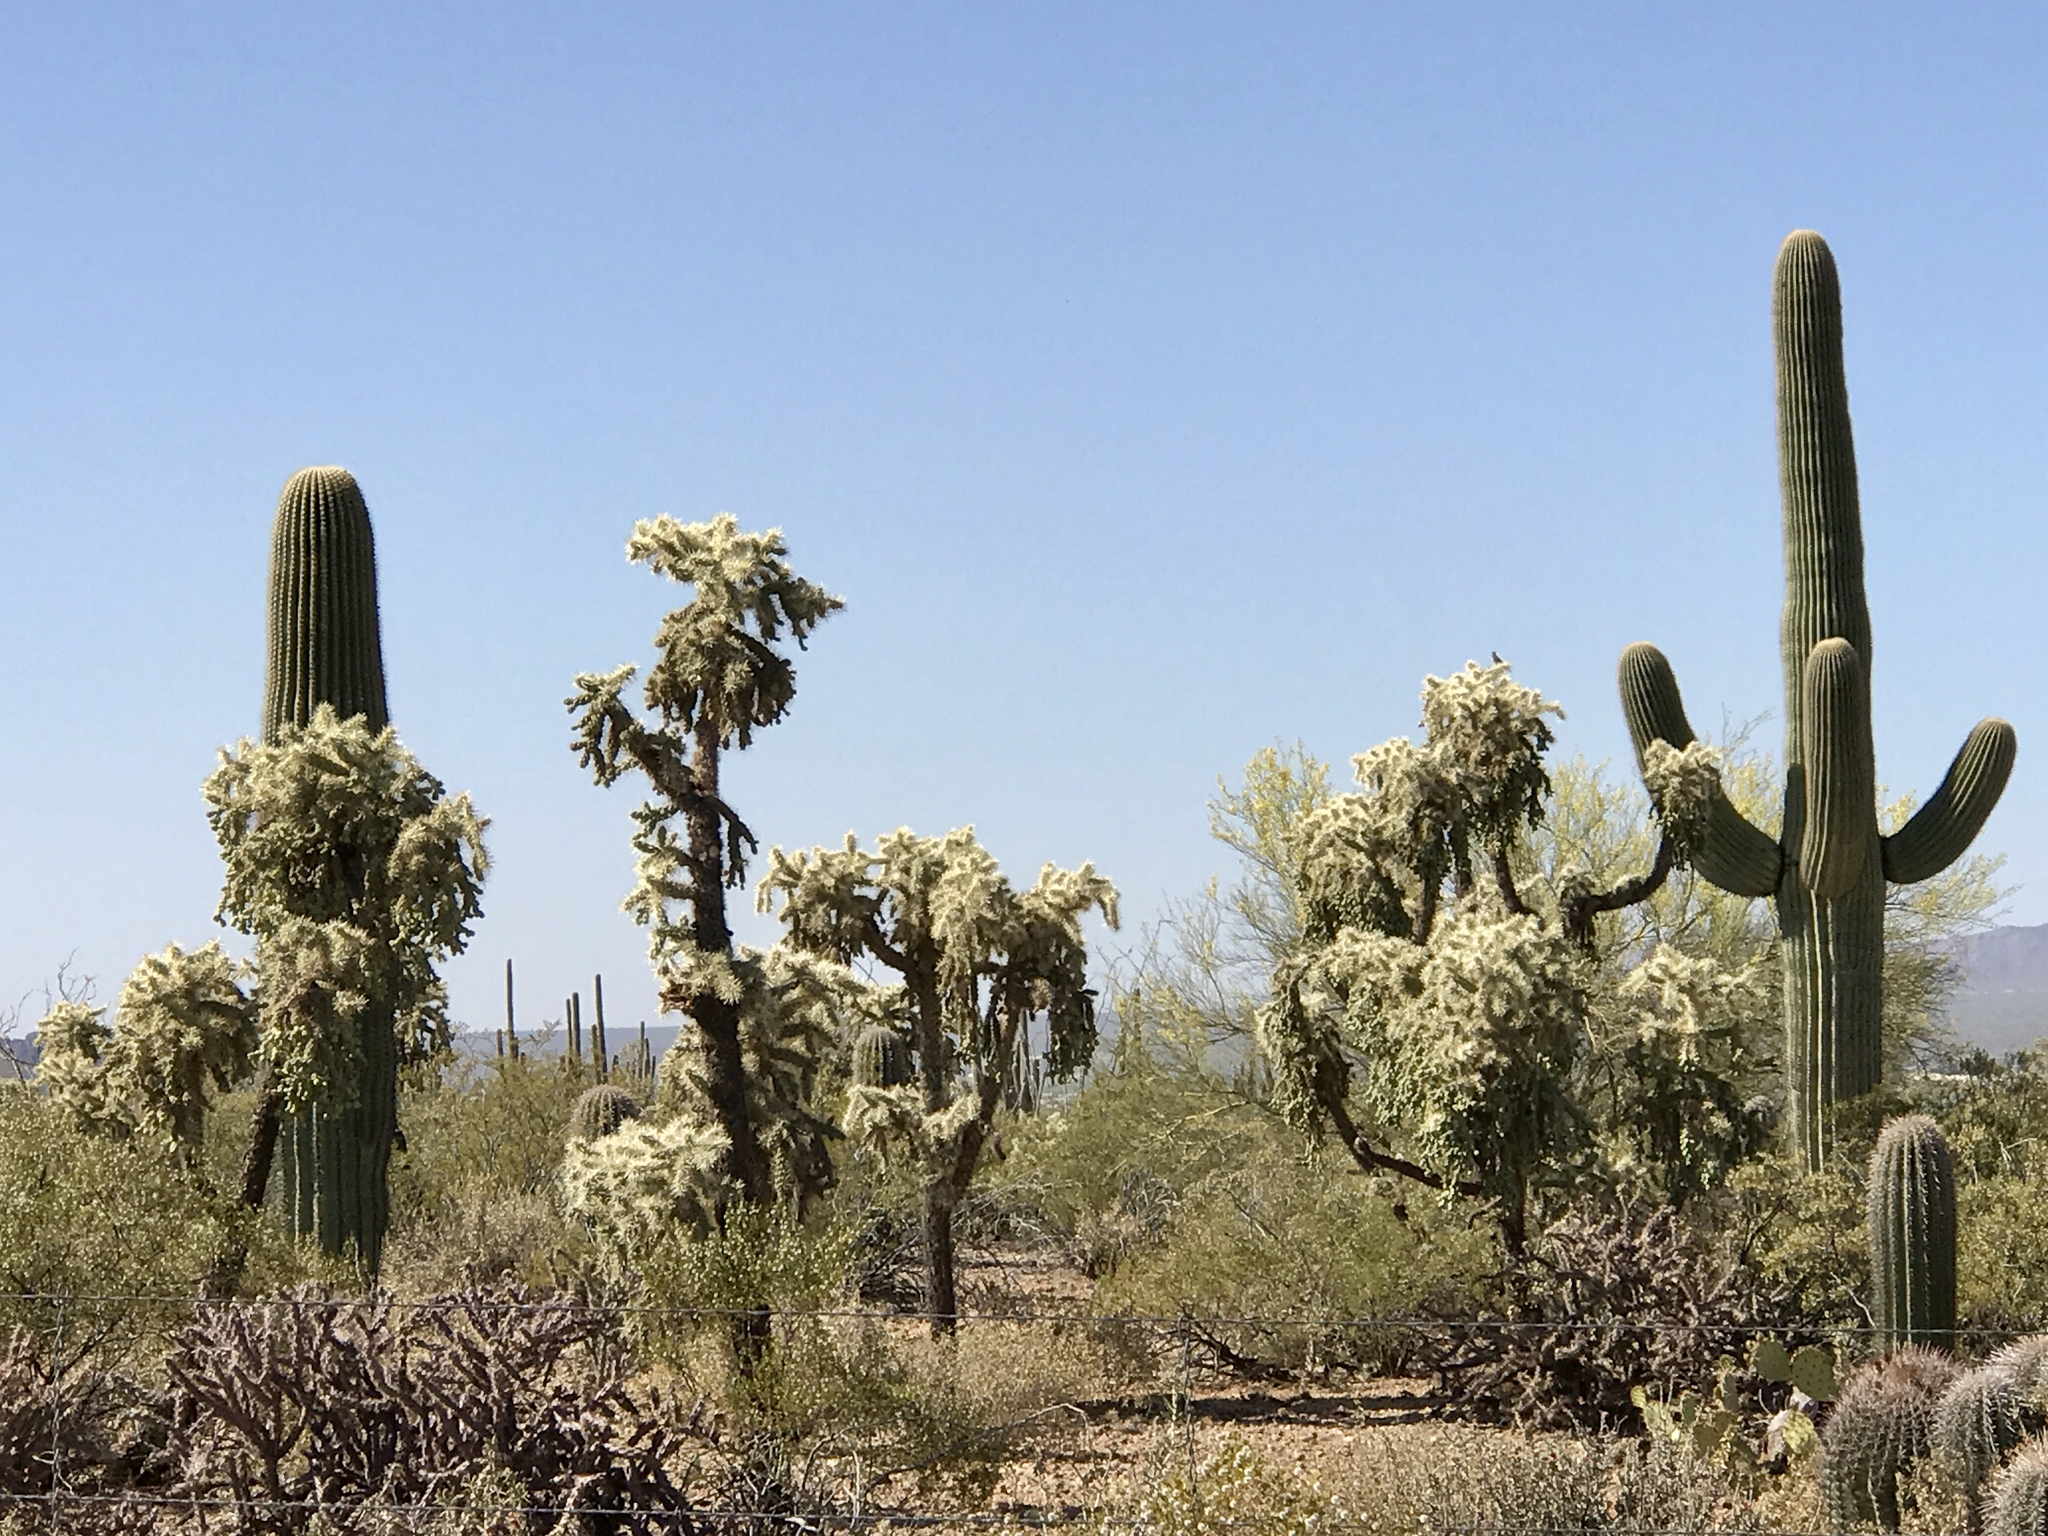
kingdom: Plantae
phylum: Tracheophyta
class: Magnoliopsida
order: Caryophyllales
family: Cactaceae
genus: Carnegiea
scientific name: Carnegiea gigantea
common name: Saguaro
